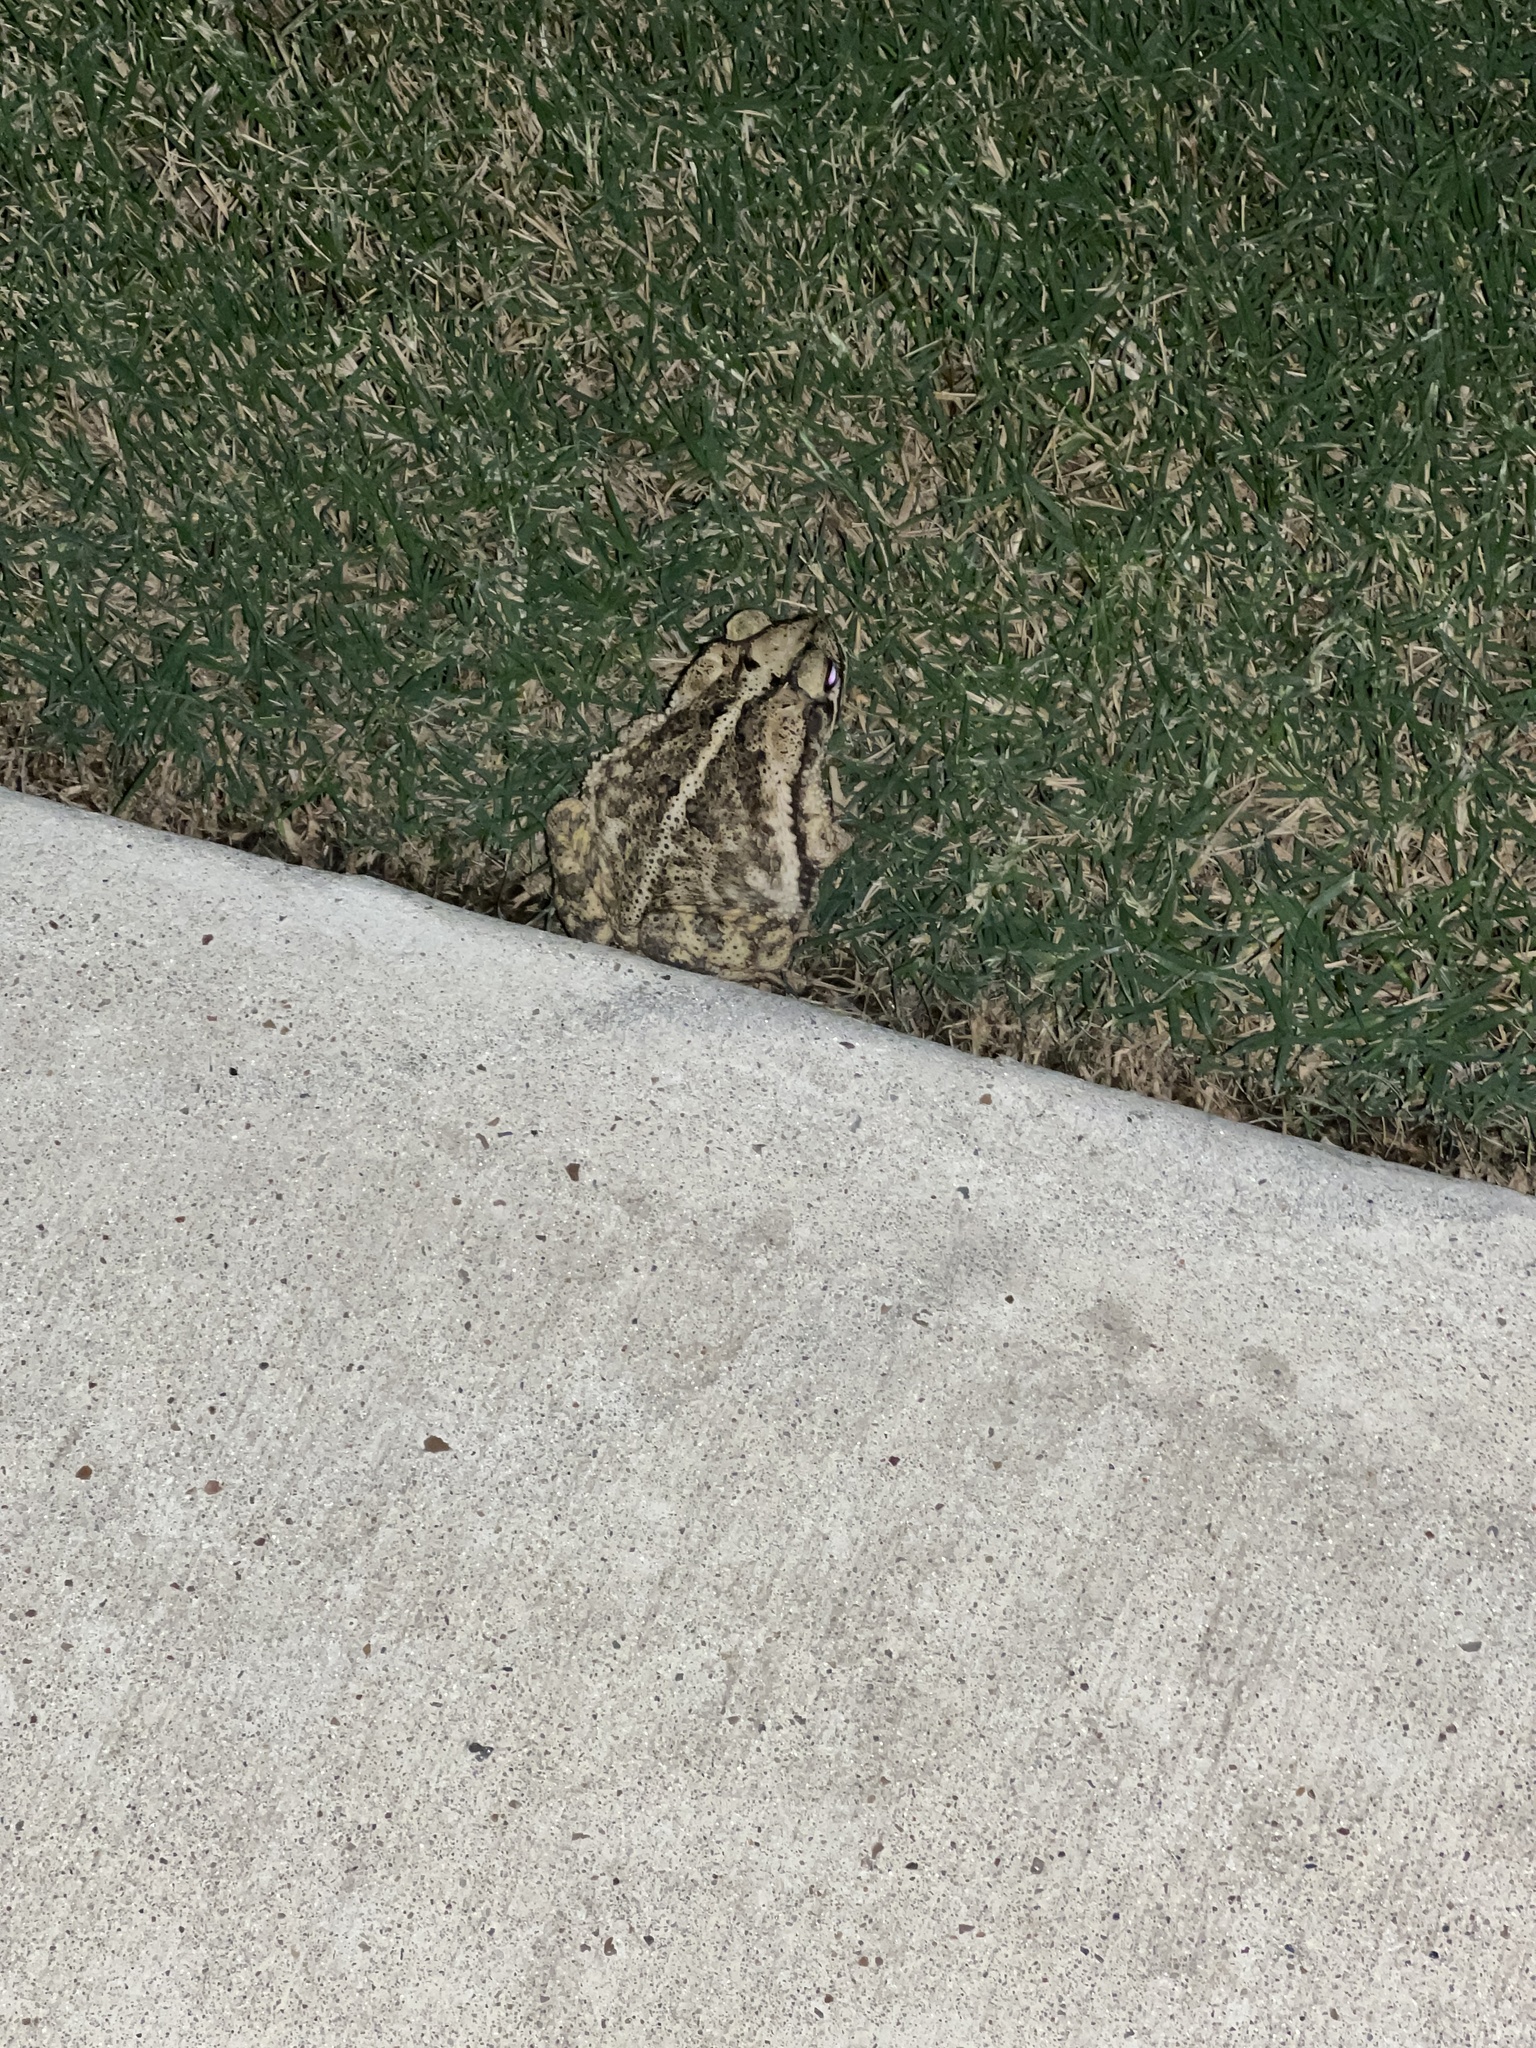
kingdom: Animalia
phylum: Chordata
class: Amphibia
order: Anura
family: Bufonidae
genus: Incilius
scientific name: Incilius nebulifer
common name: Gulf coast toad
